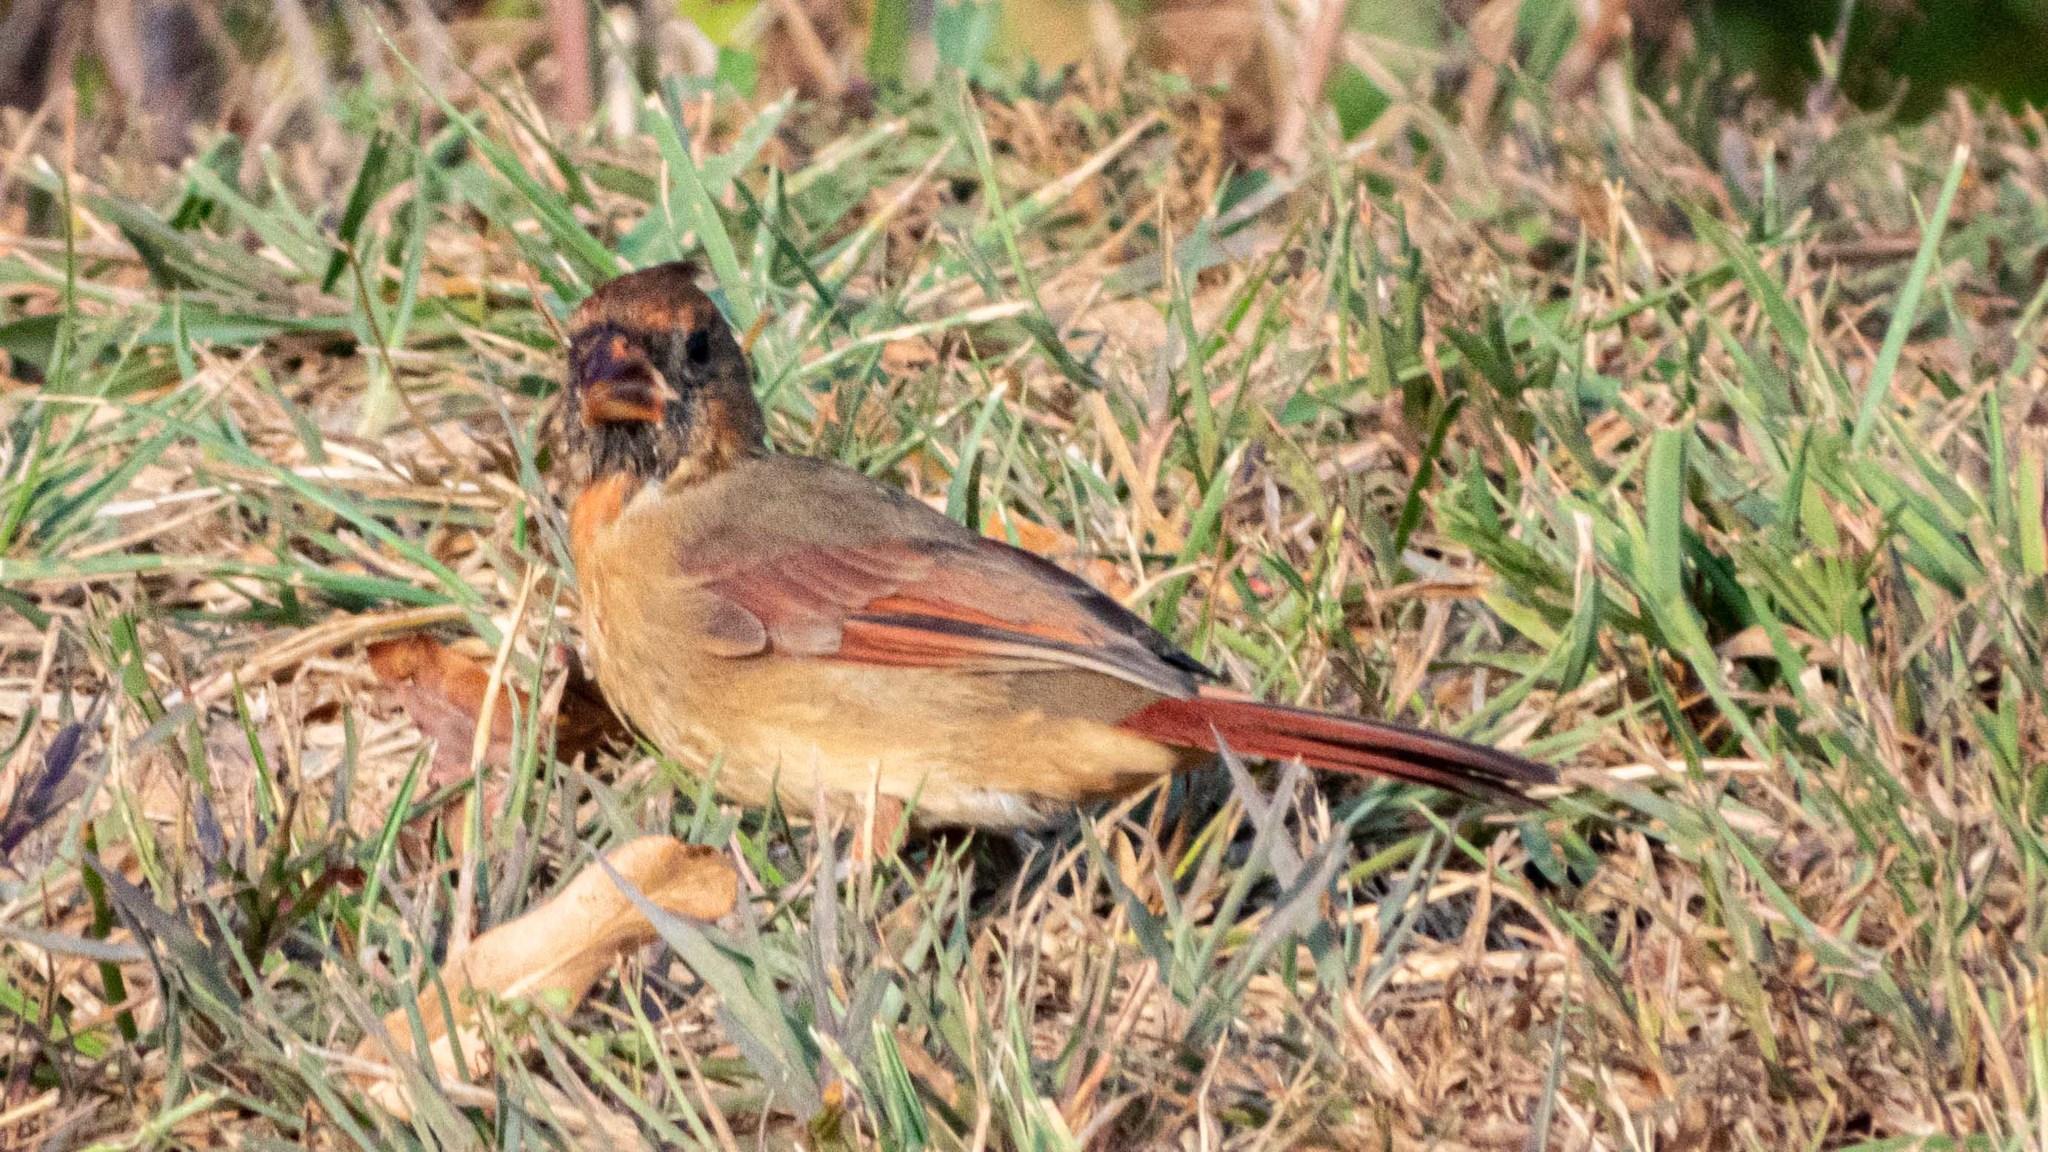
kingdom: Animalia
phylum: Chordata
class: Aves
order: Passeriformes
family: Cardinalidae
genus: Cardinalis
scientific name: Cardinalis cardinalis
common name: Northern cardinal
